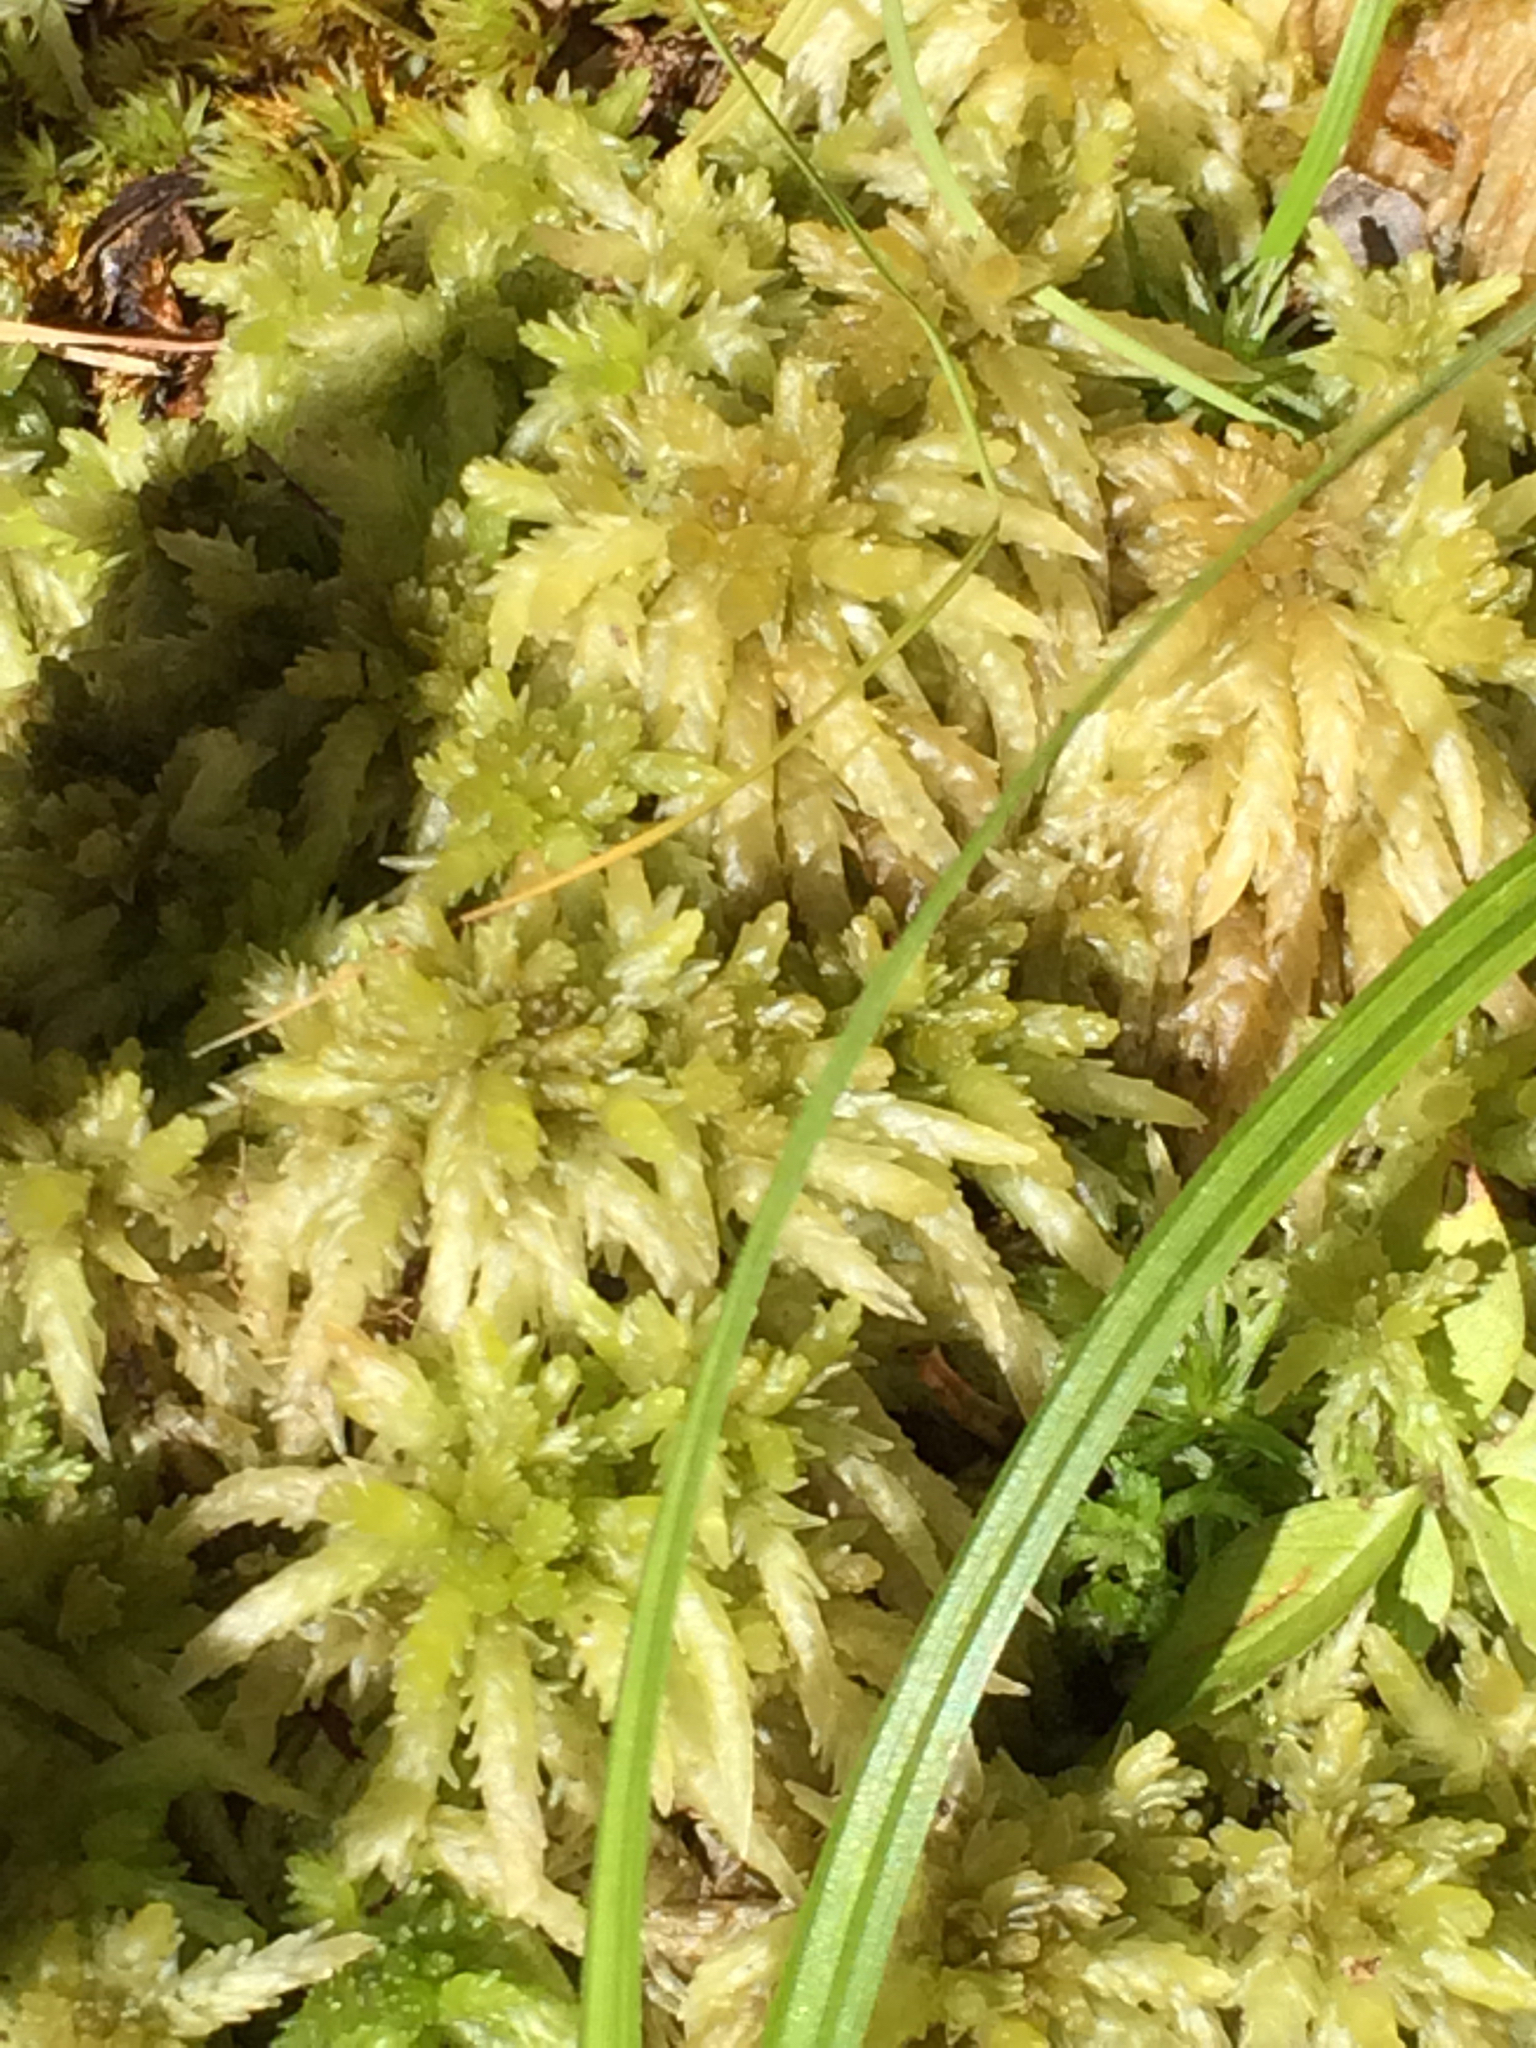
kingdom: Plantae
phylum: Bryophyta
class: Sphagnopsida
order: Sphagnales
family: Sphagnaceae
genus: Sphagnum
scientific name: Sphagnum
